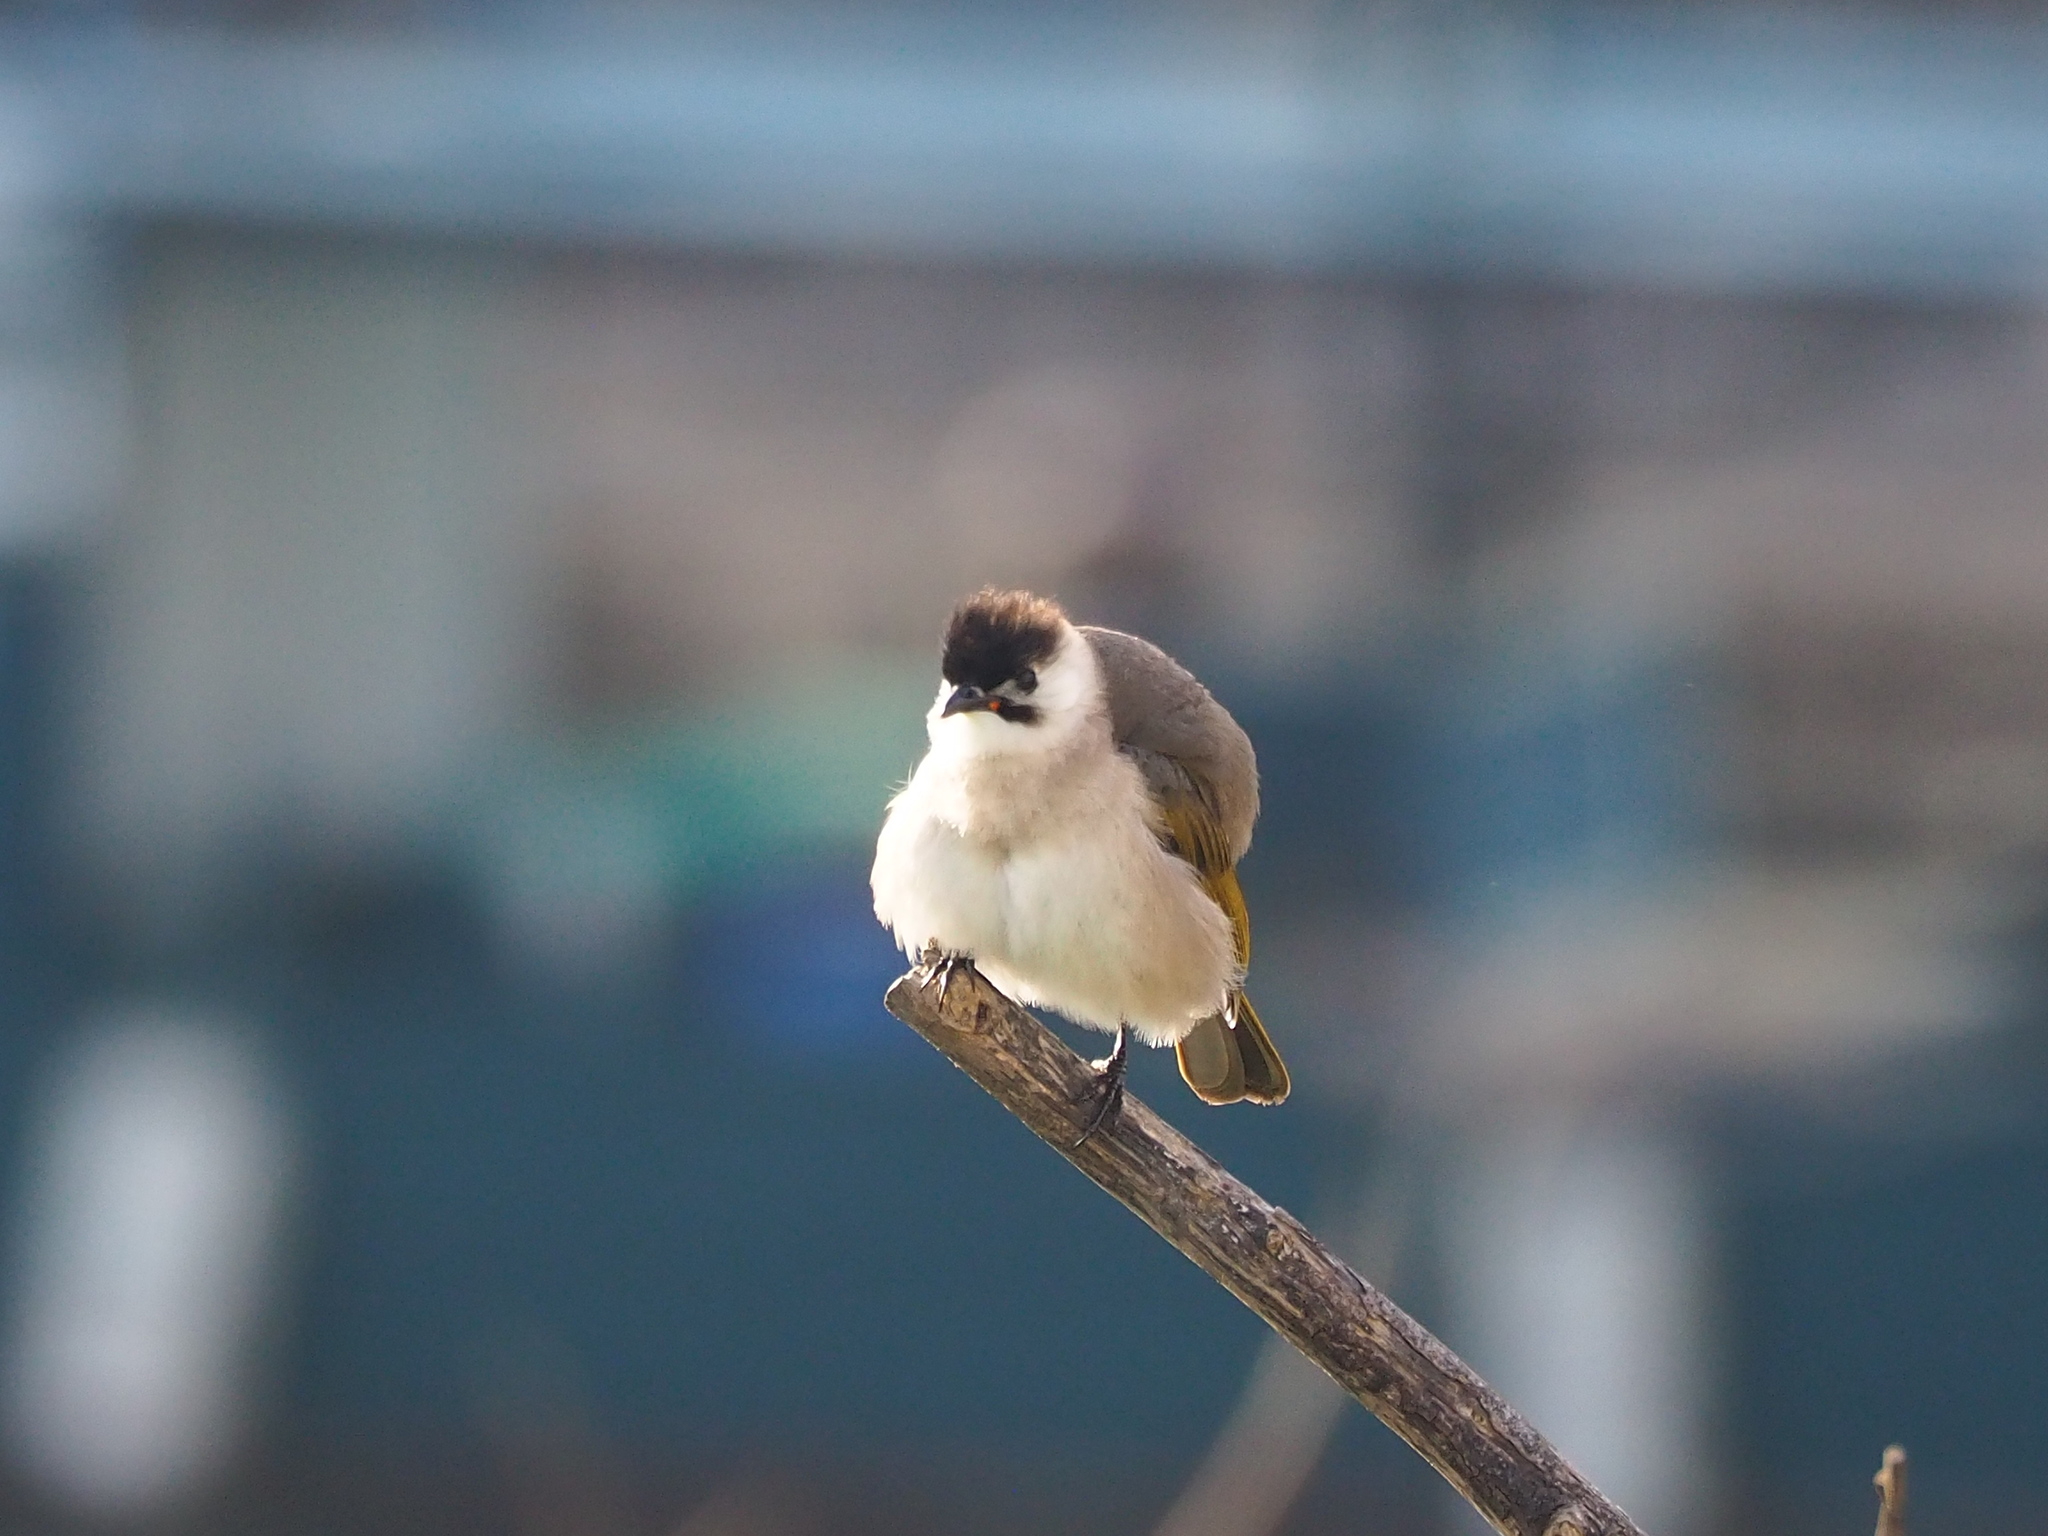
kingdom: Animalia
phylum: Chordata
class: Aves
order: Passeriformes
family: Pycnonotidae
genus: Pycnonotus
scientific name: Pycnonotus taivanus
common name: Styan's bulbul
